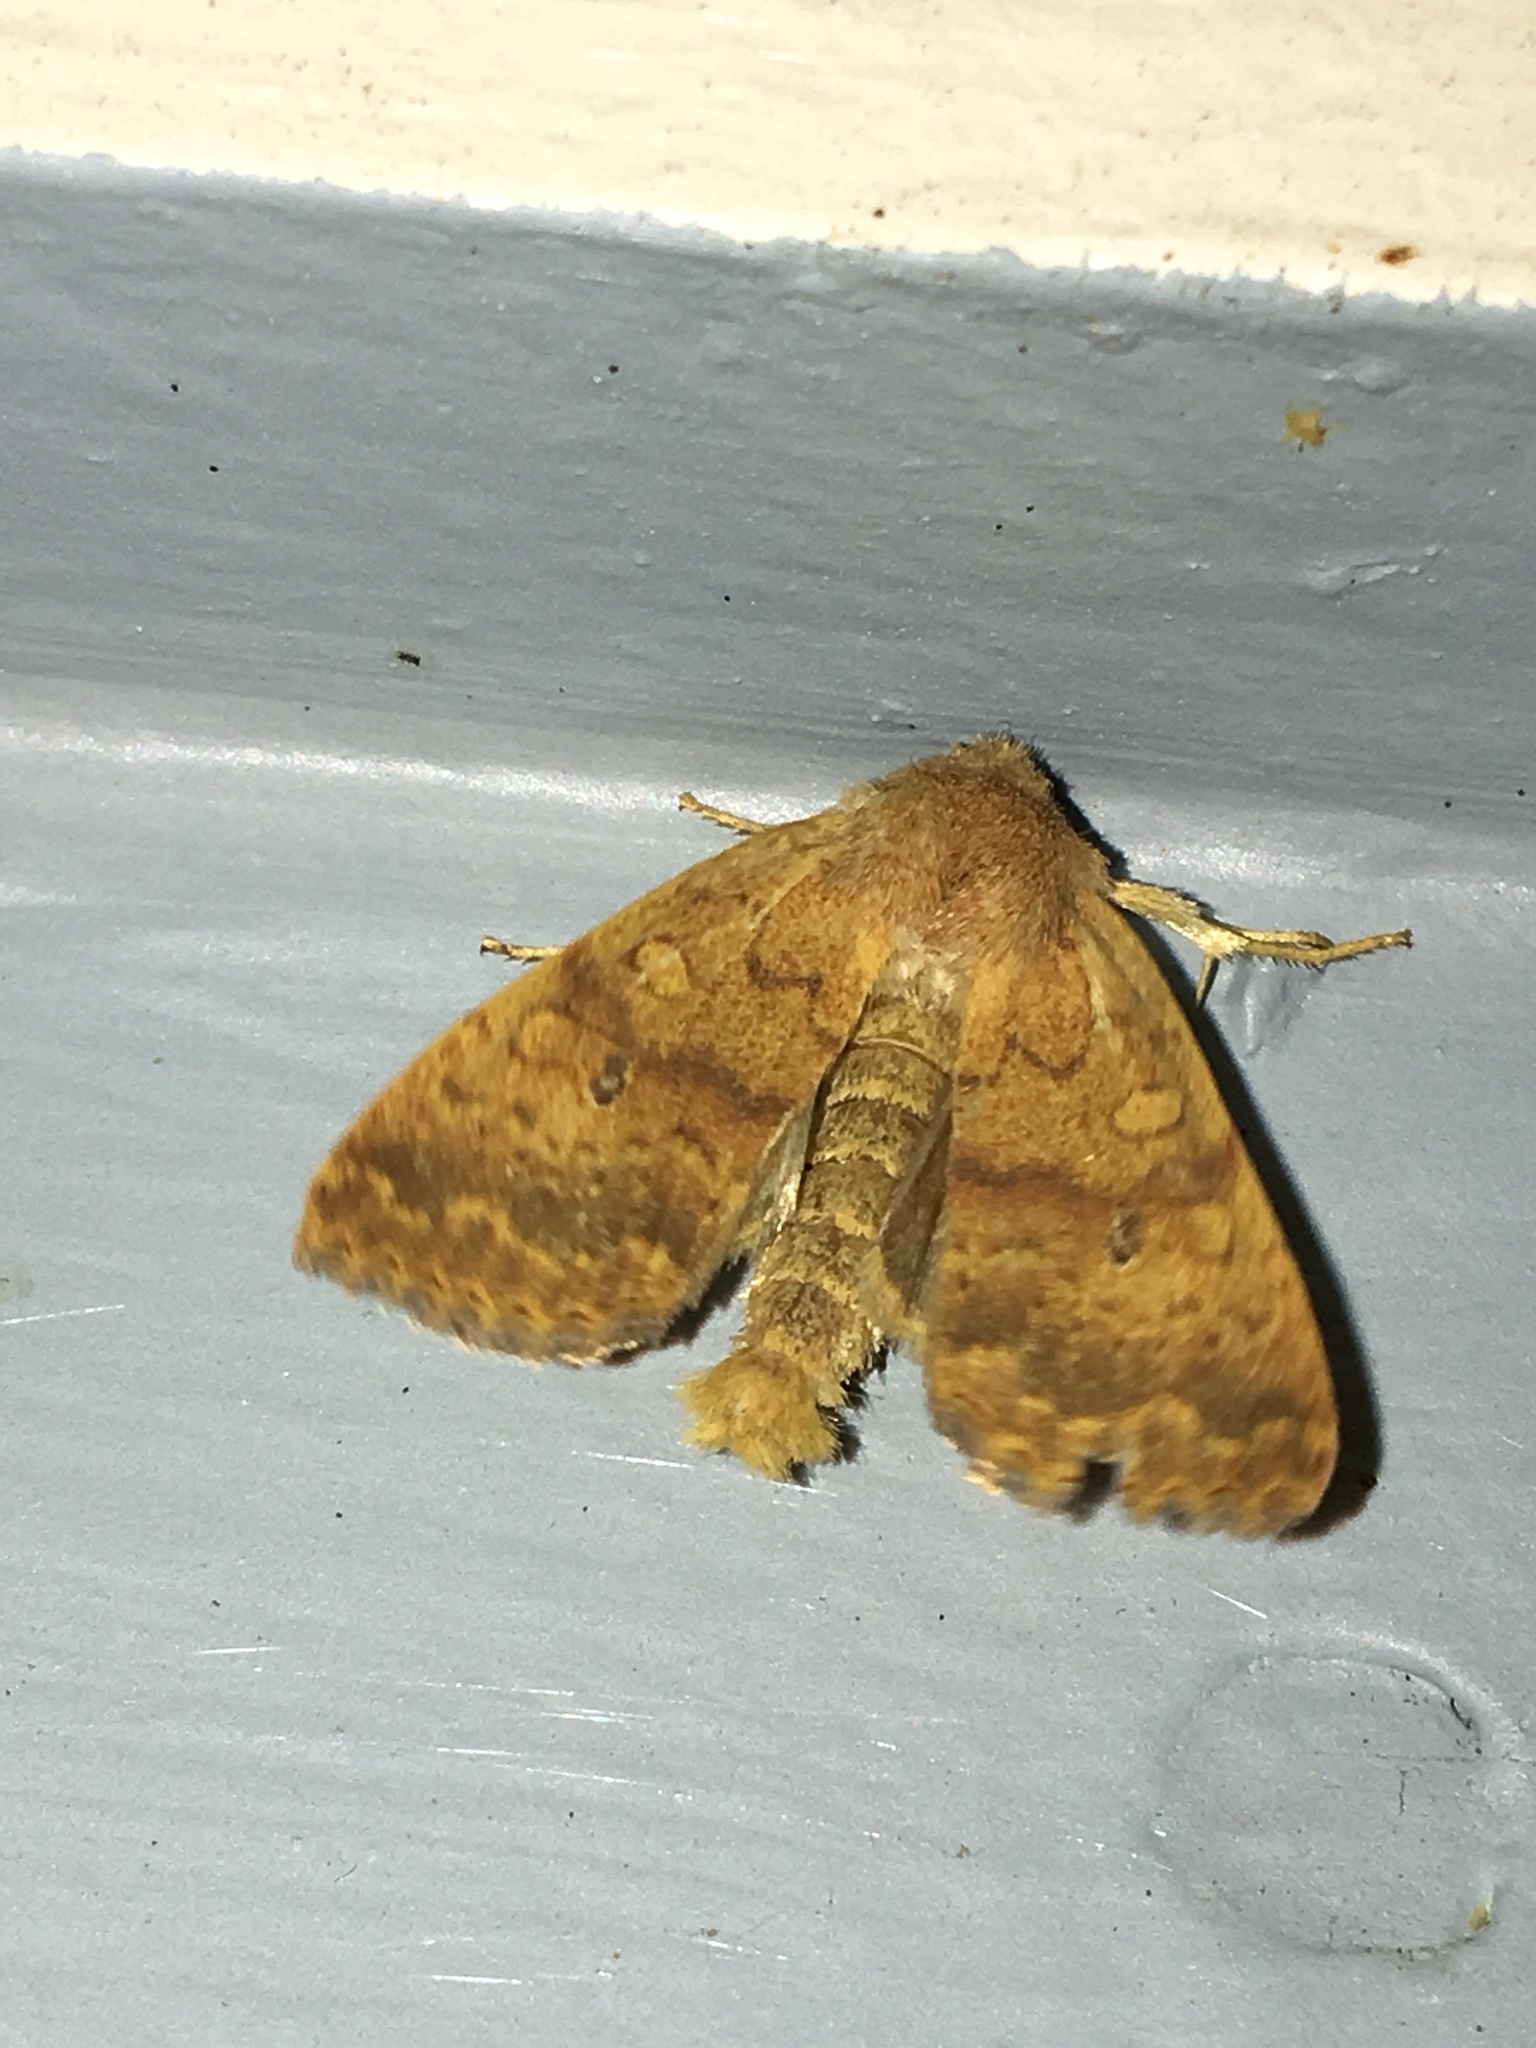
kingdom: Animalia
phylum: Arthropoda
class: Insecta
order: Lepidoptera
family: Noctuidae
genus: Agrochola
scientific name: Agrochola bicolorago
